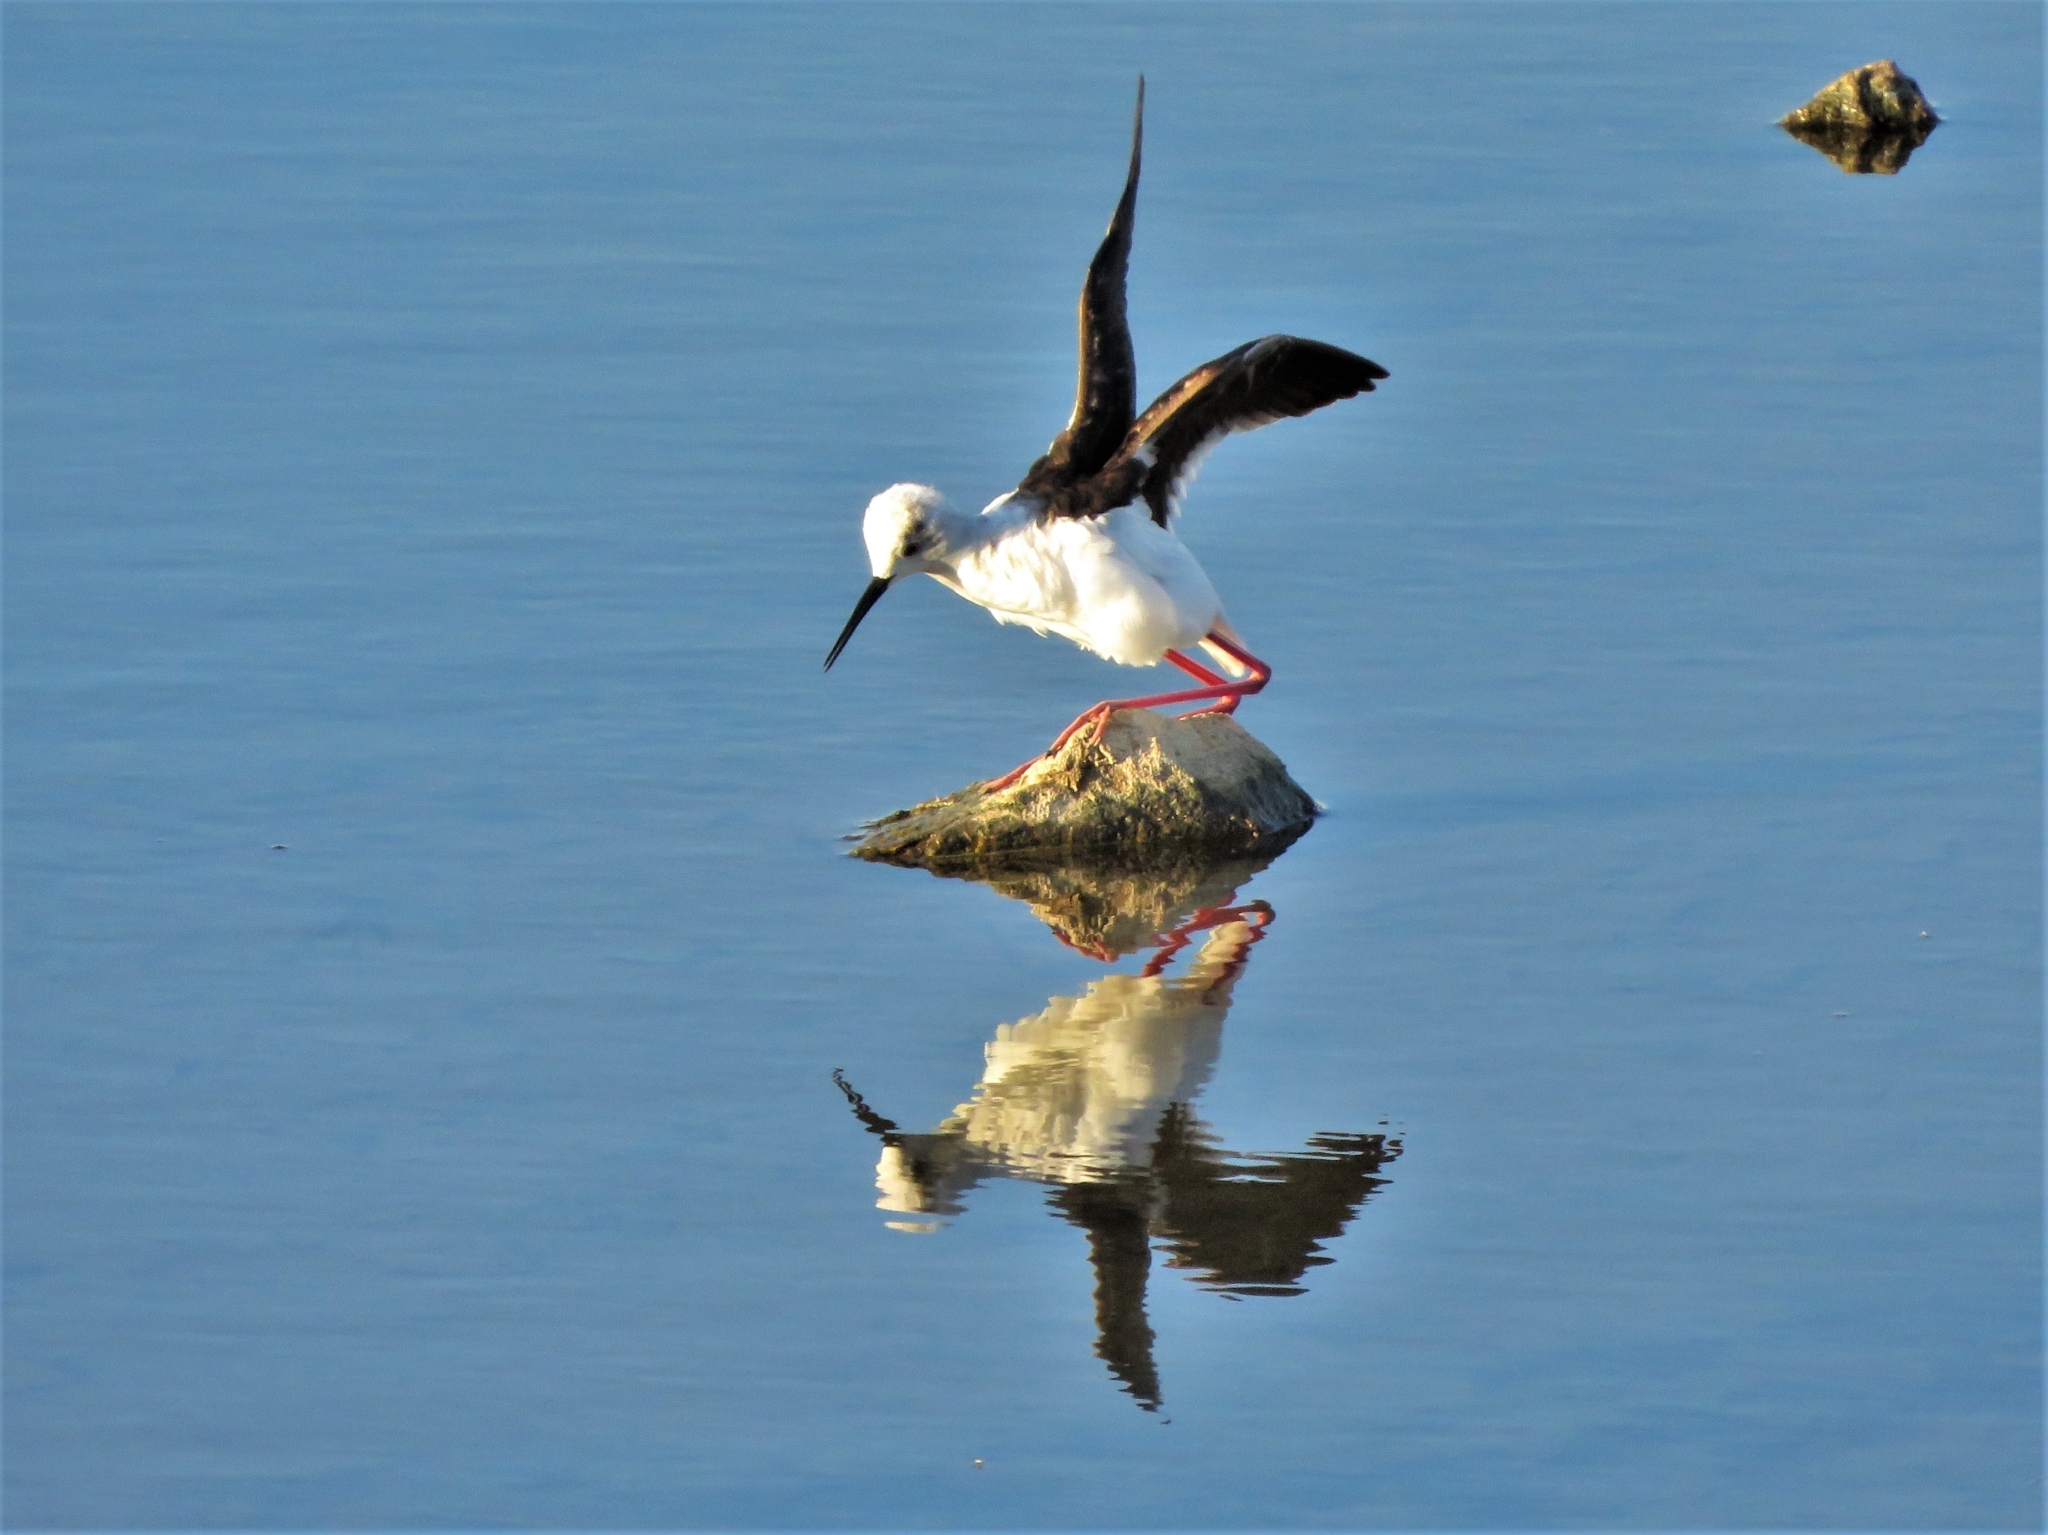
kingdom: Animalia
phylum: Chordata
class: Aves
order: Charadriiformes
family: Recurvirostridae
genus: Himantopus
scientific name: Himantopus himantopus
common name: Black-winged stilt
